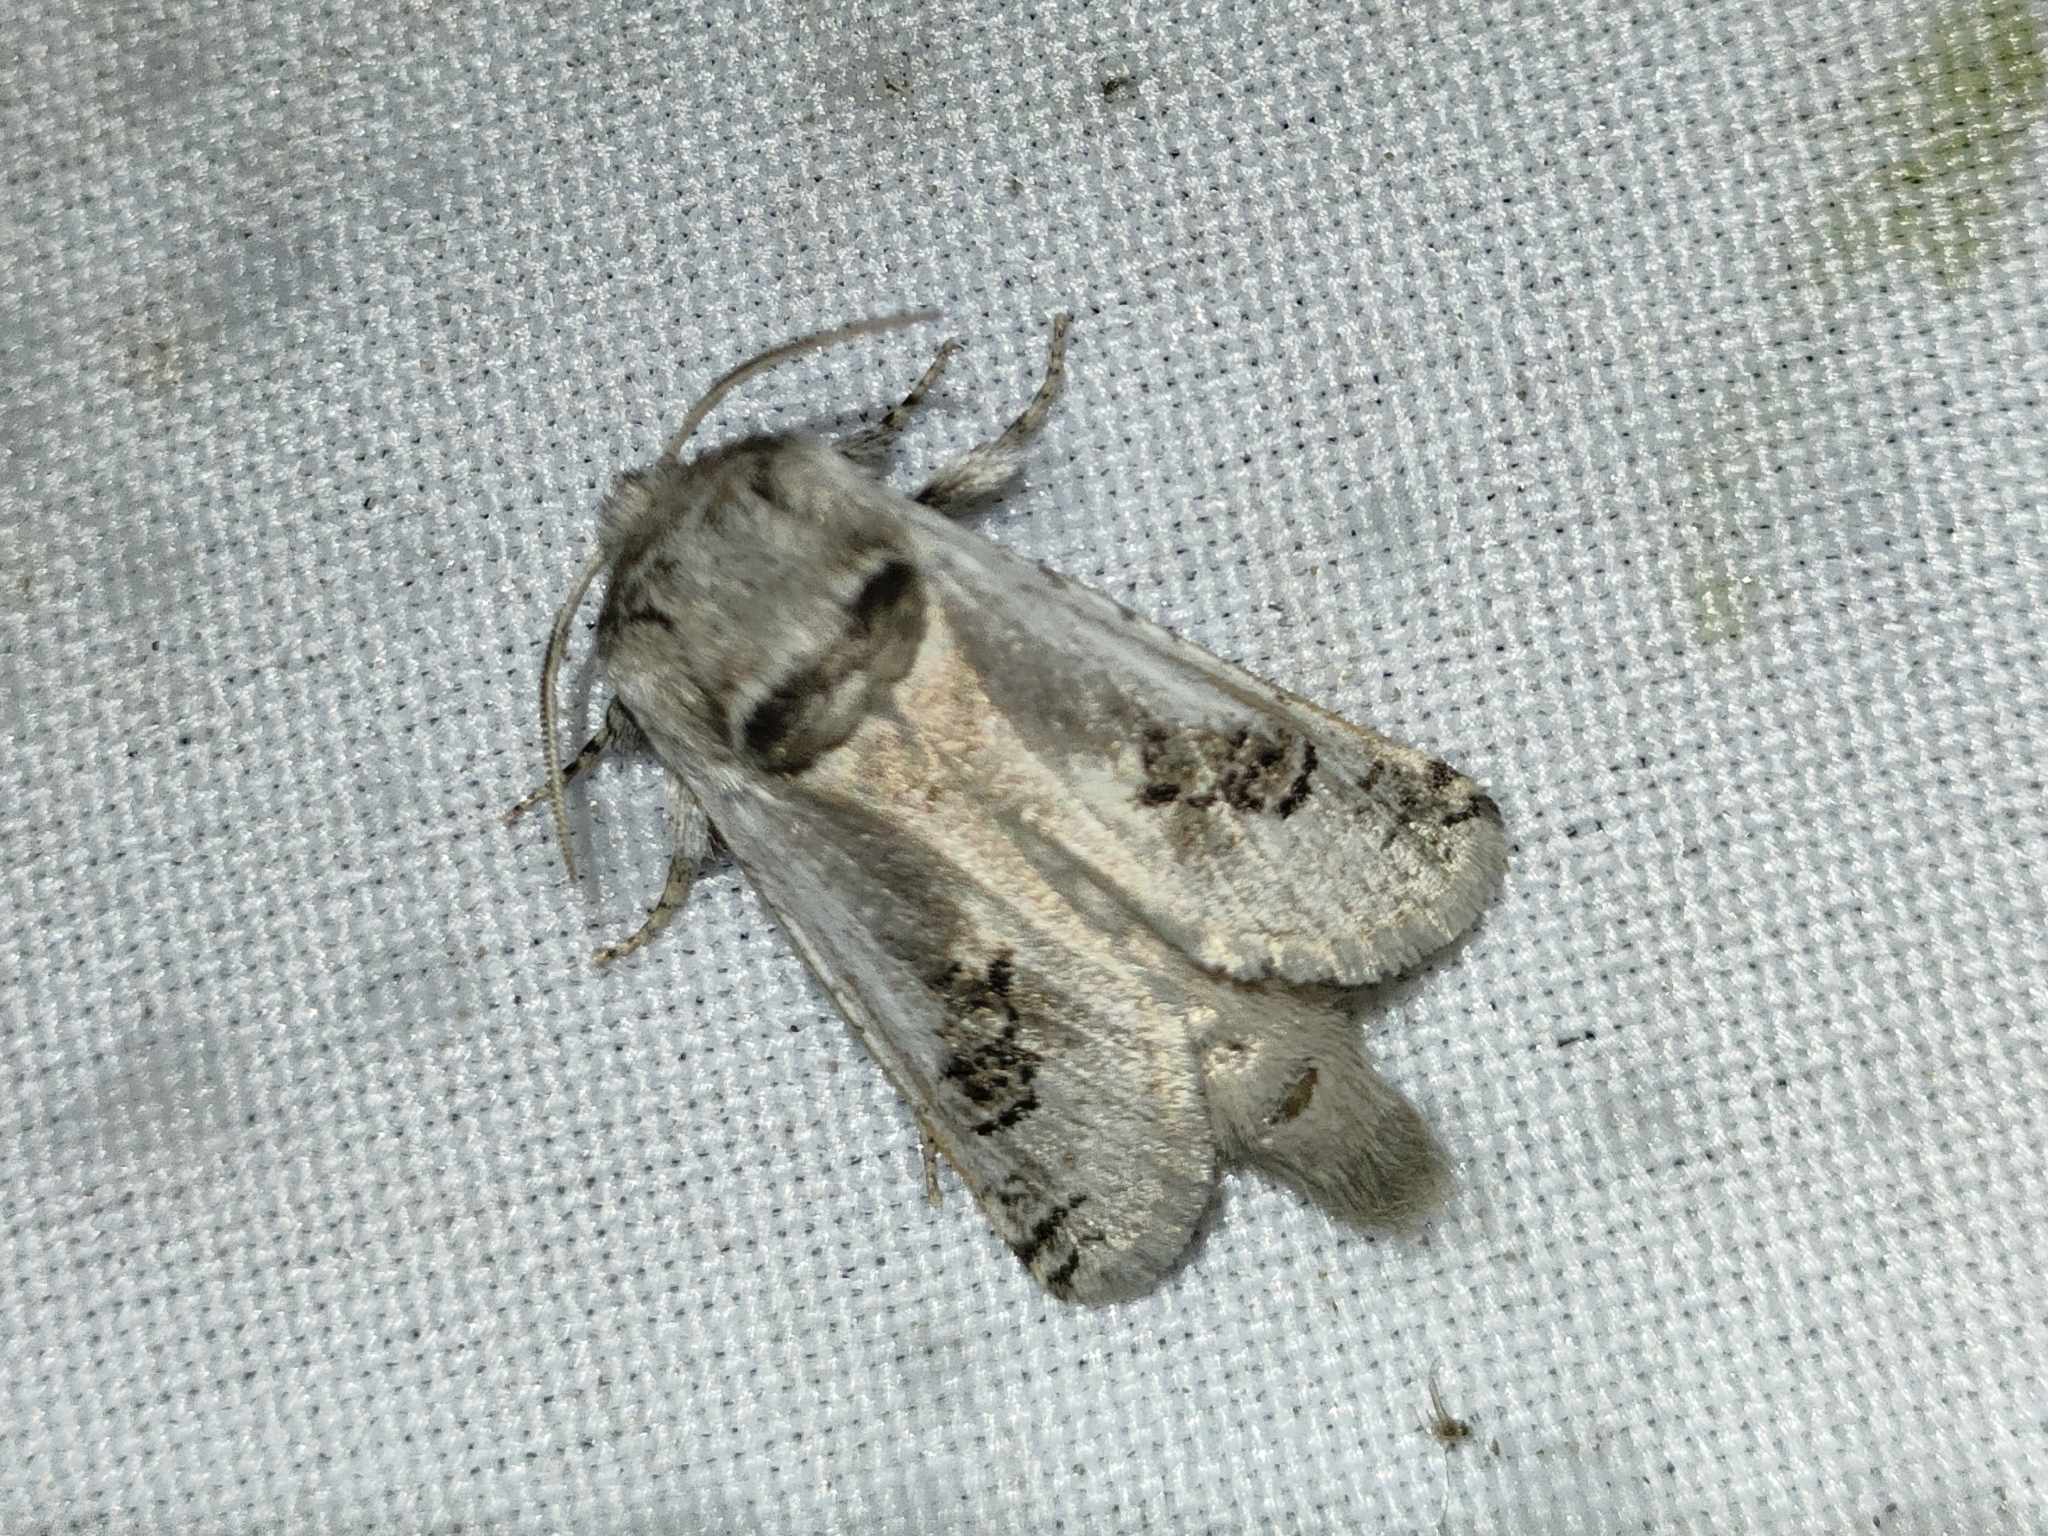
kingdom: Animalia
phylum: Arthropoda
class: Insecta
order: Lepidoptera
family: Cossidae
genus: Parahypopta
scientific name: Parahypopta caestrum
